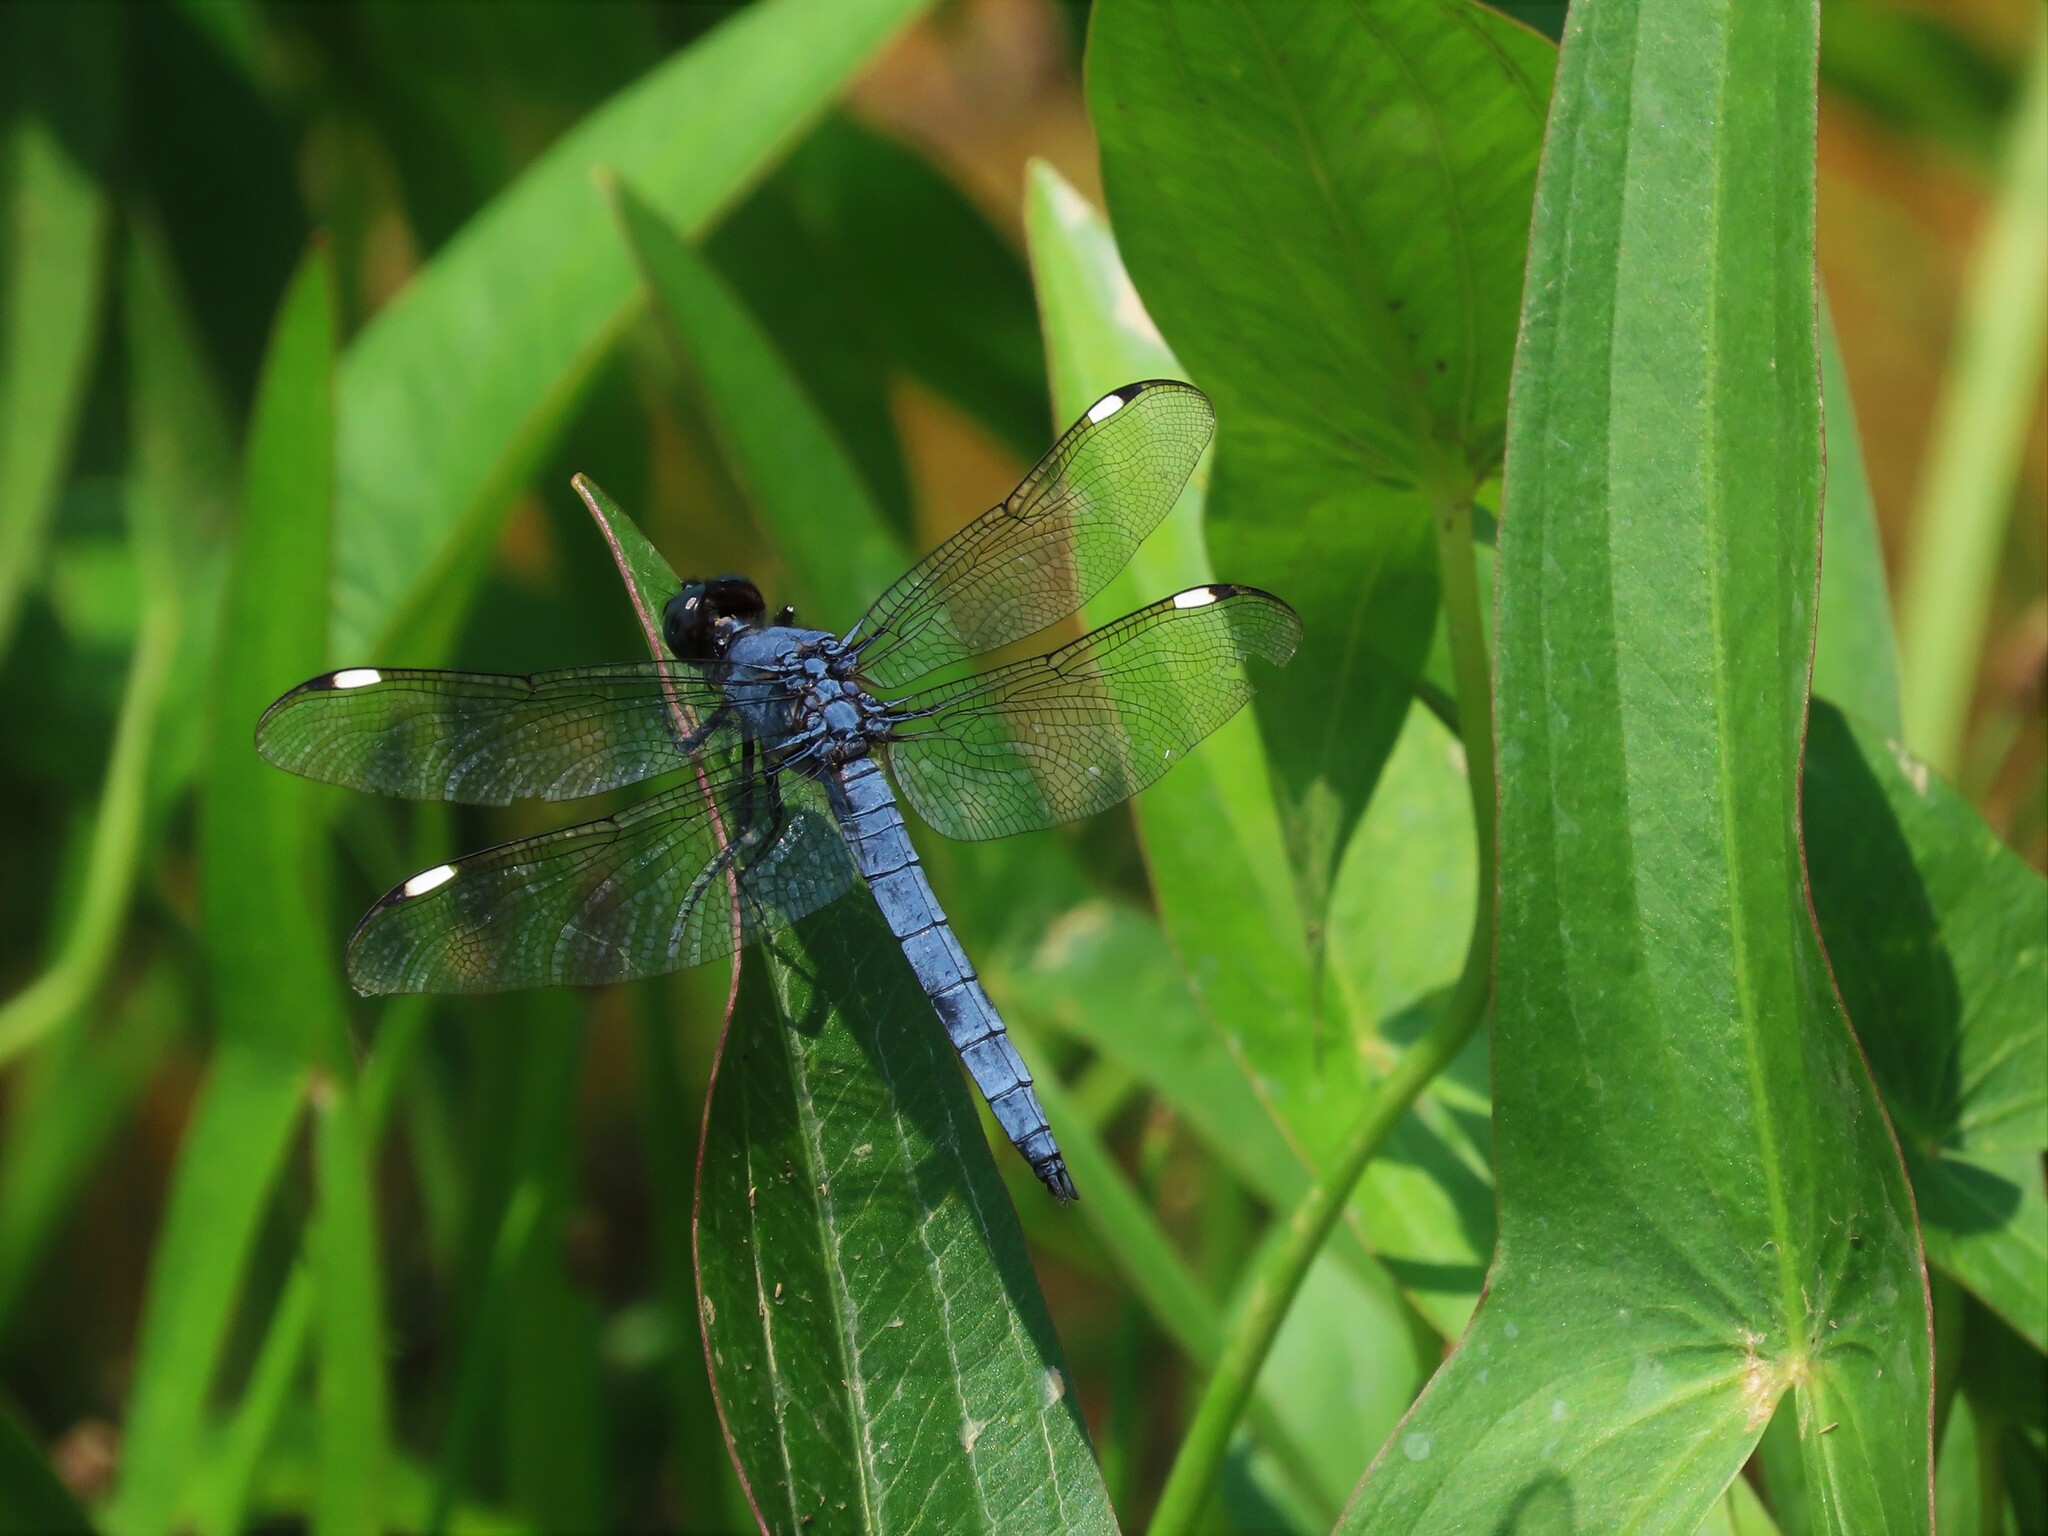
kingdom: Animalia
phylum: Arthropoda
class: Insecta
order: Odonata
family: Libellulidae
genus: Libellula
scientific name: Libellula cyanea
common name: Spangled skimmer
